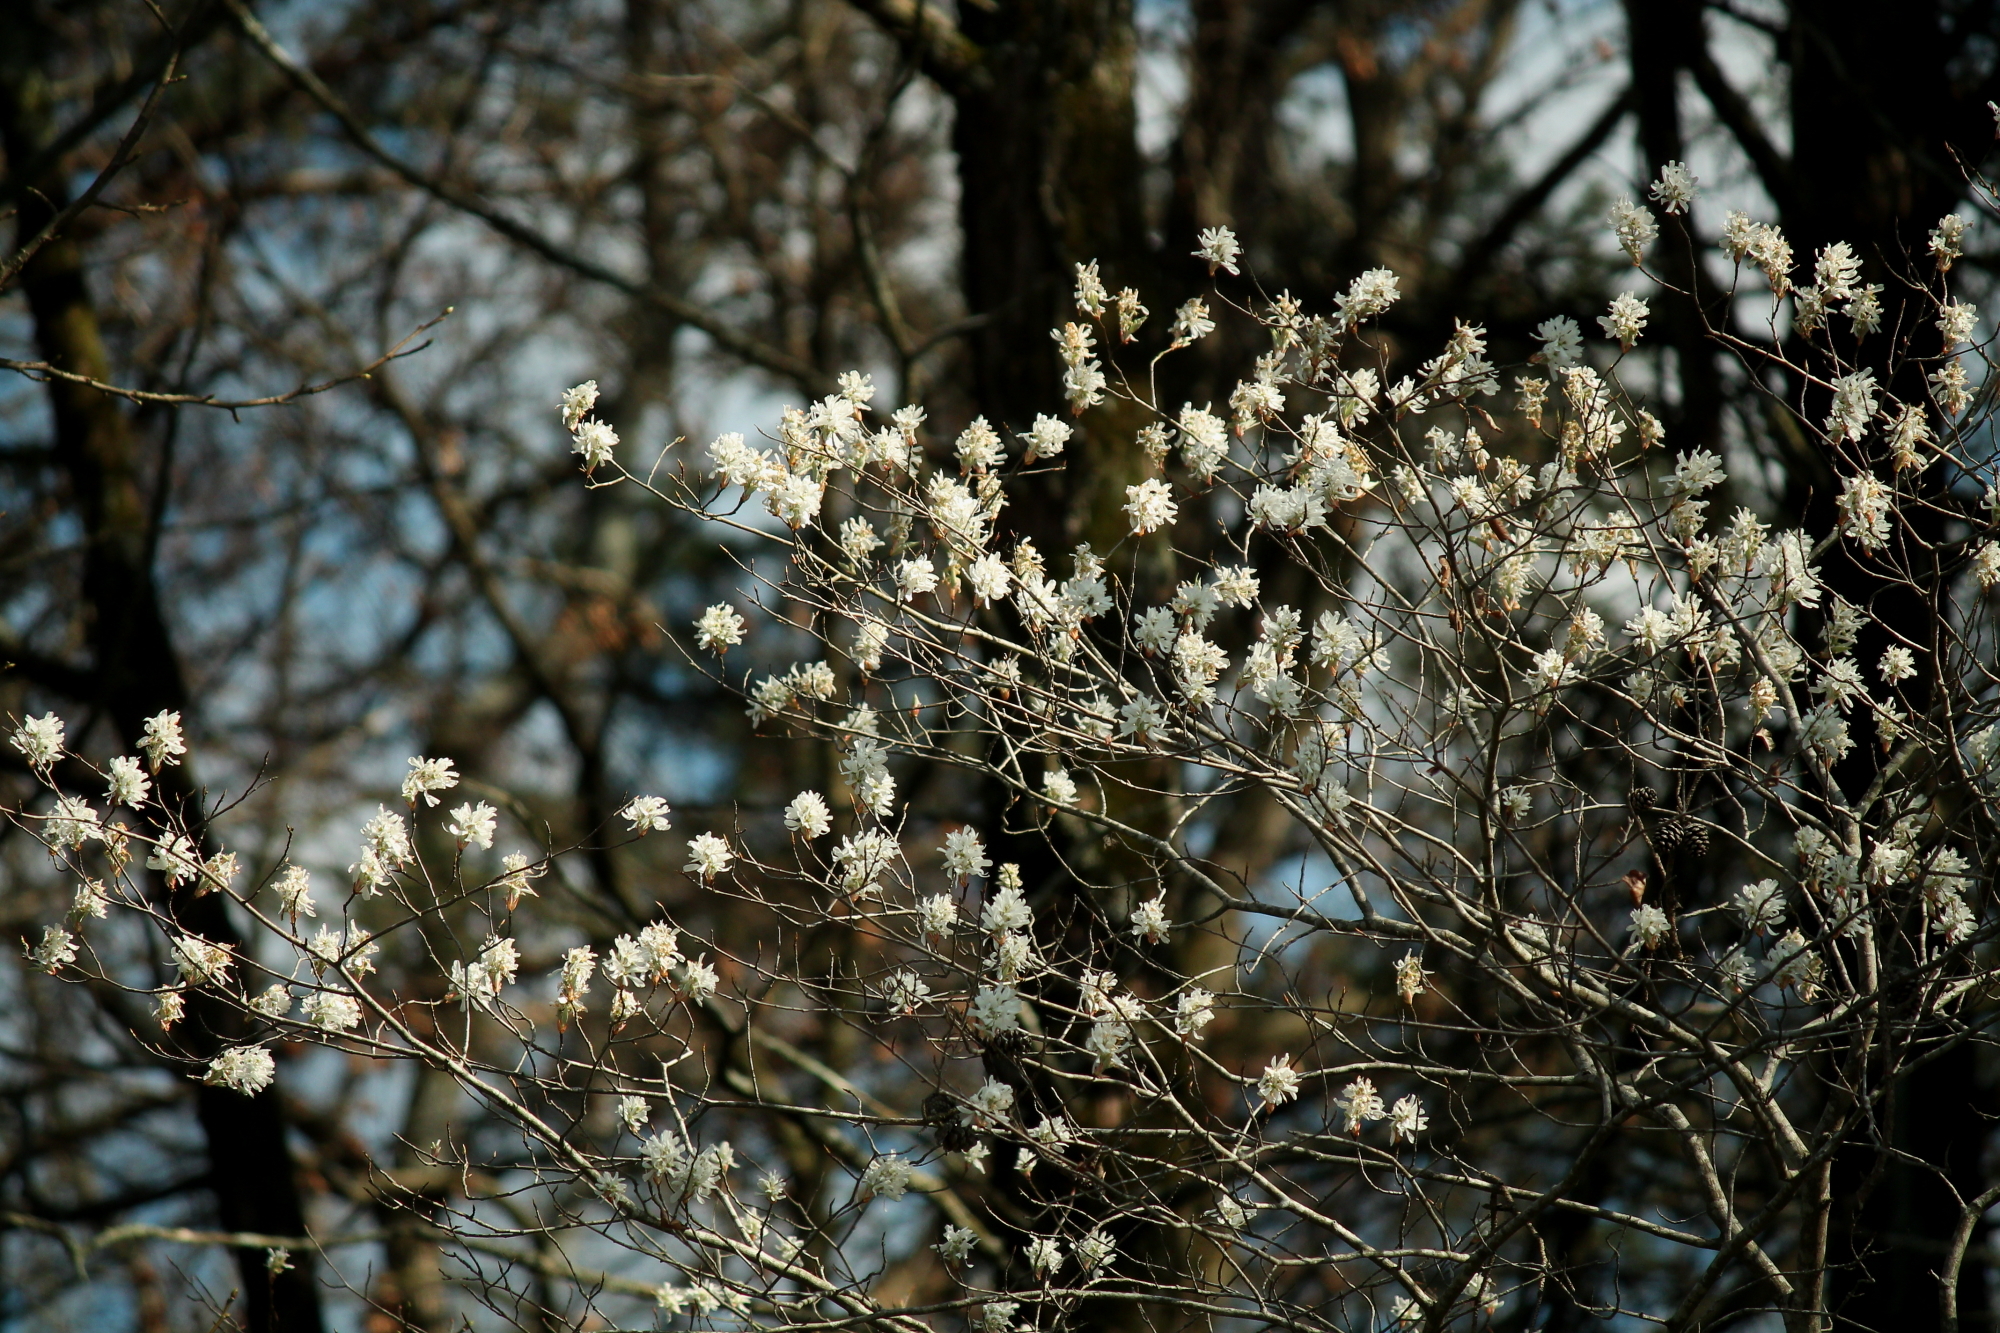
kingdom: Plantae
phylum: Tracheophyta
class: Magnoliopsida
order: Rosales
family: Rosaceae
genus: Amelanchier
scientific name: Amelanchier arborea
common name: Downy serviceberry
